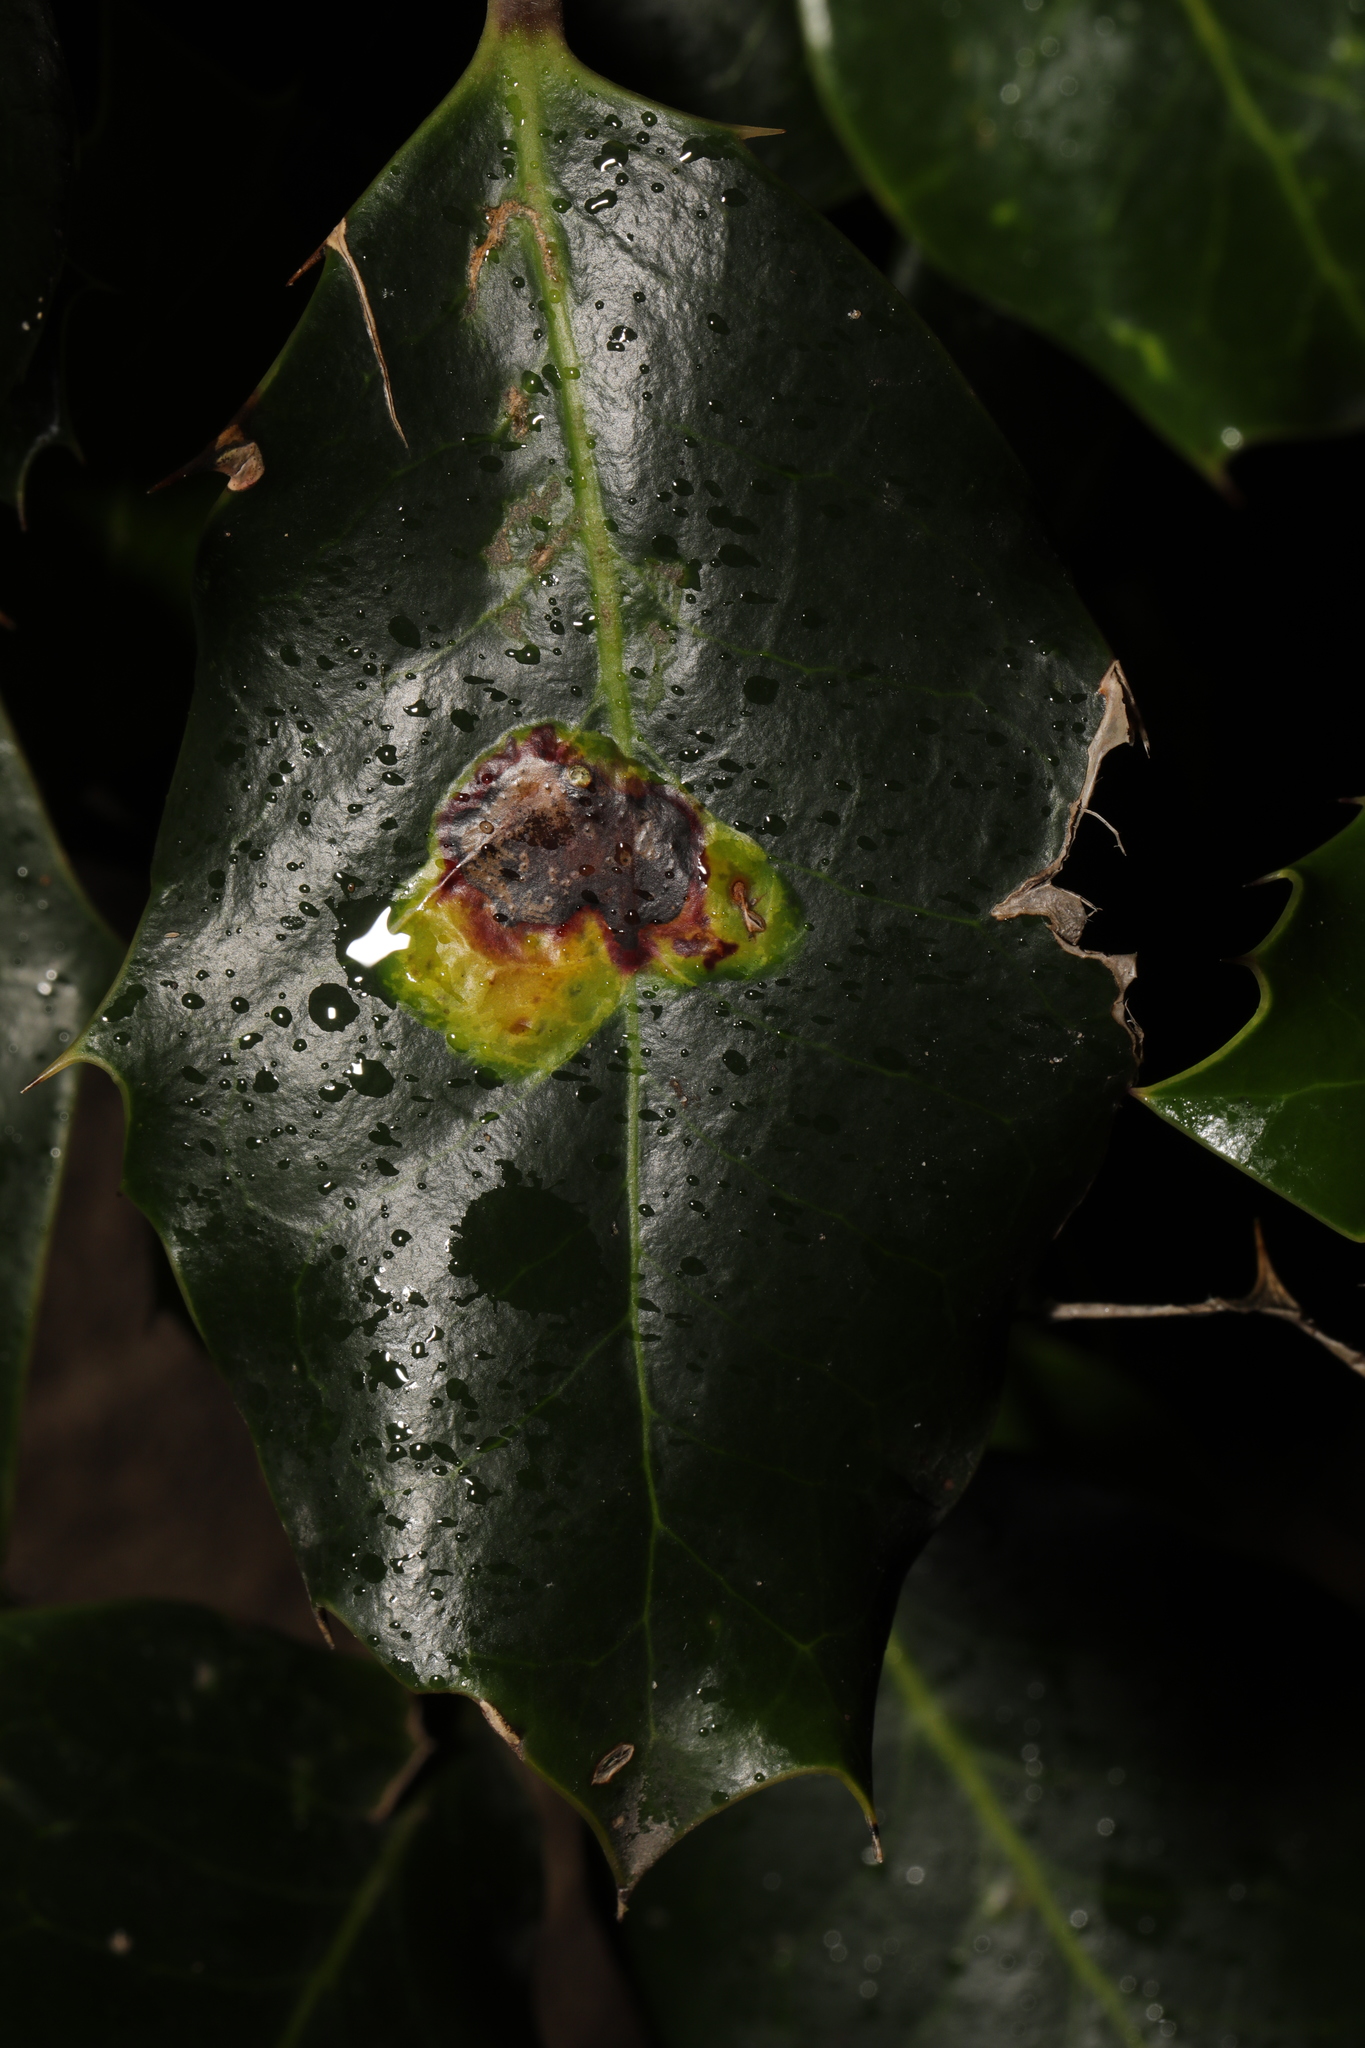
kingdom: Animalia
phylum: Arthropoda
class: Insecta
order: Diptera
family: Agromyzidae
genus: Phytomyza
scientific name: Phytomyza ilicis
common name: Holly leafminer
